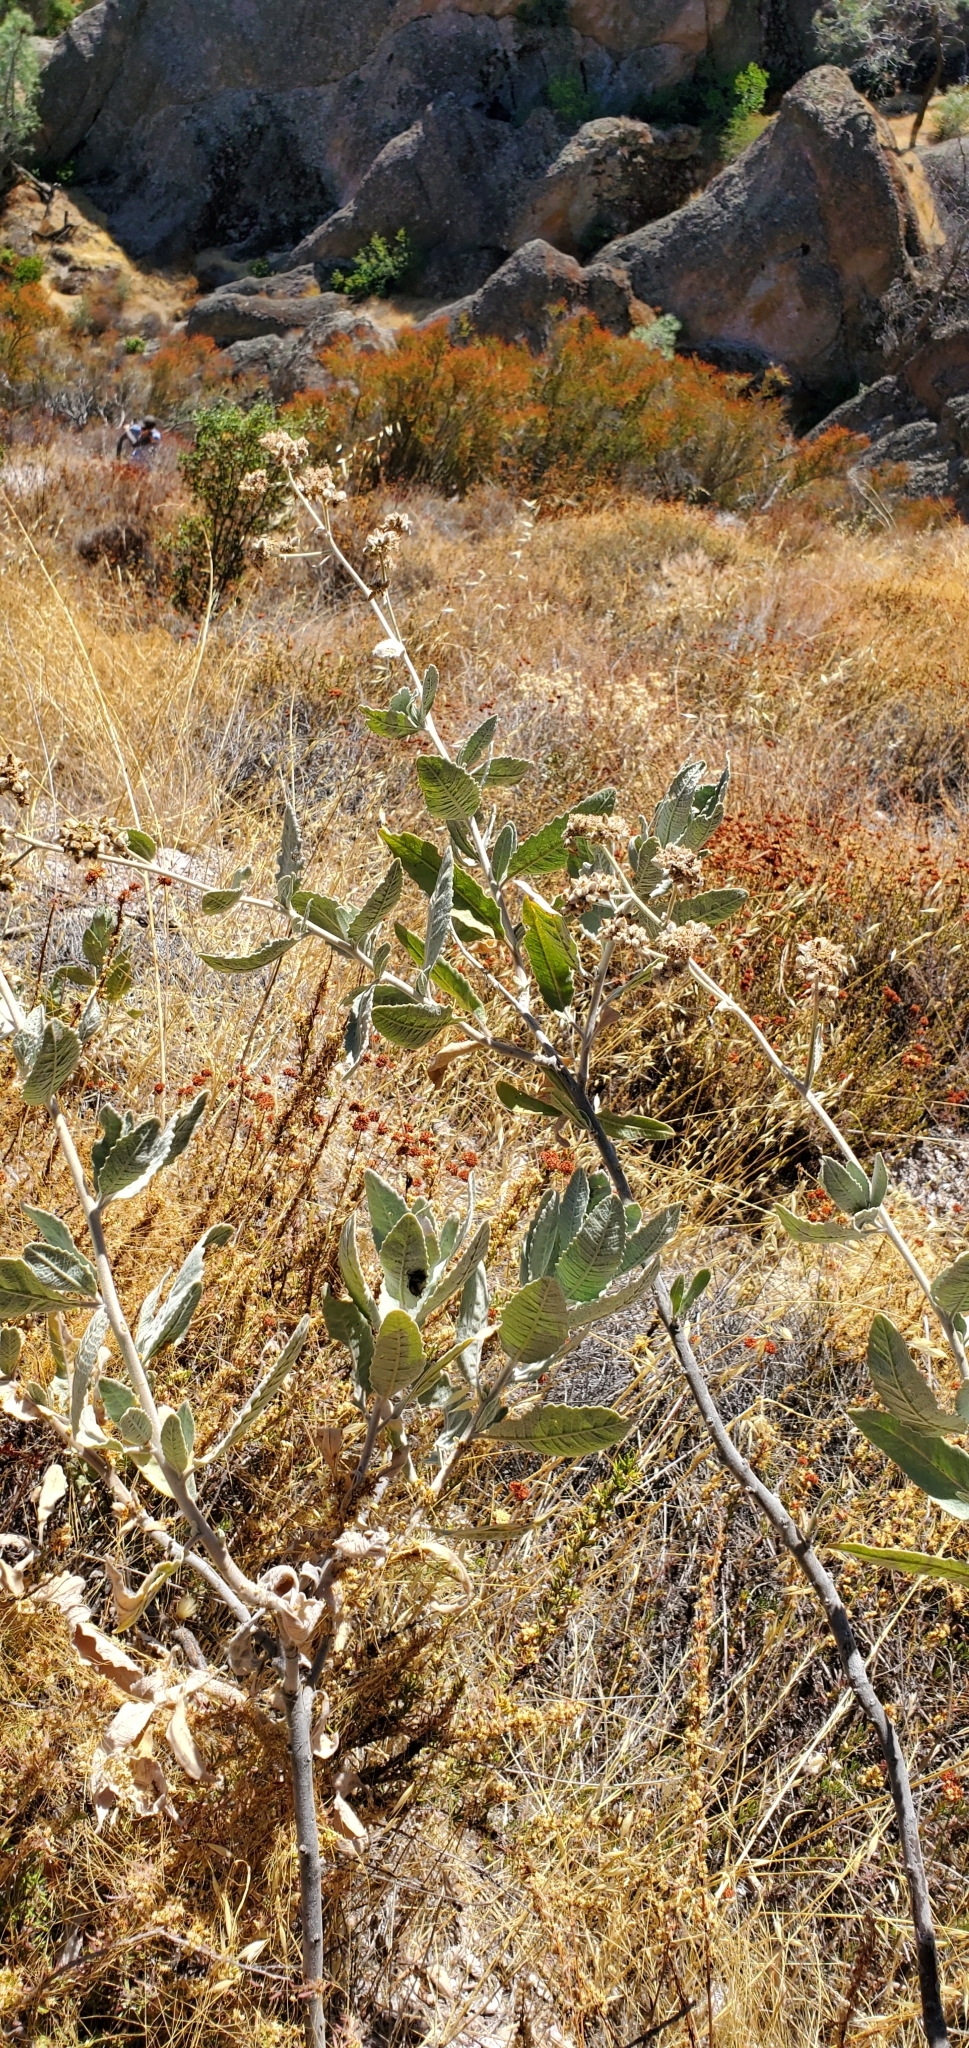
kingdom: Plantae
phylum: Tracheophyta
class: Magnoliopsida
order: Boraginales
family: Namaceae
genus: Eriodictyon
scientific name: Eriodictyon tomentosum
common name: Woolly yerba-santa
